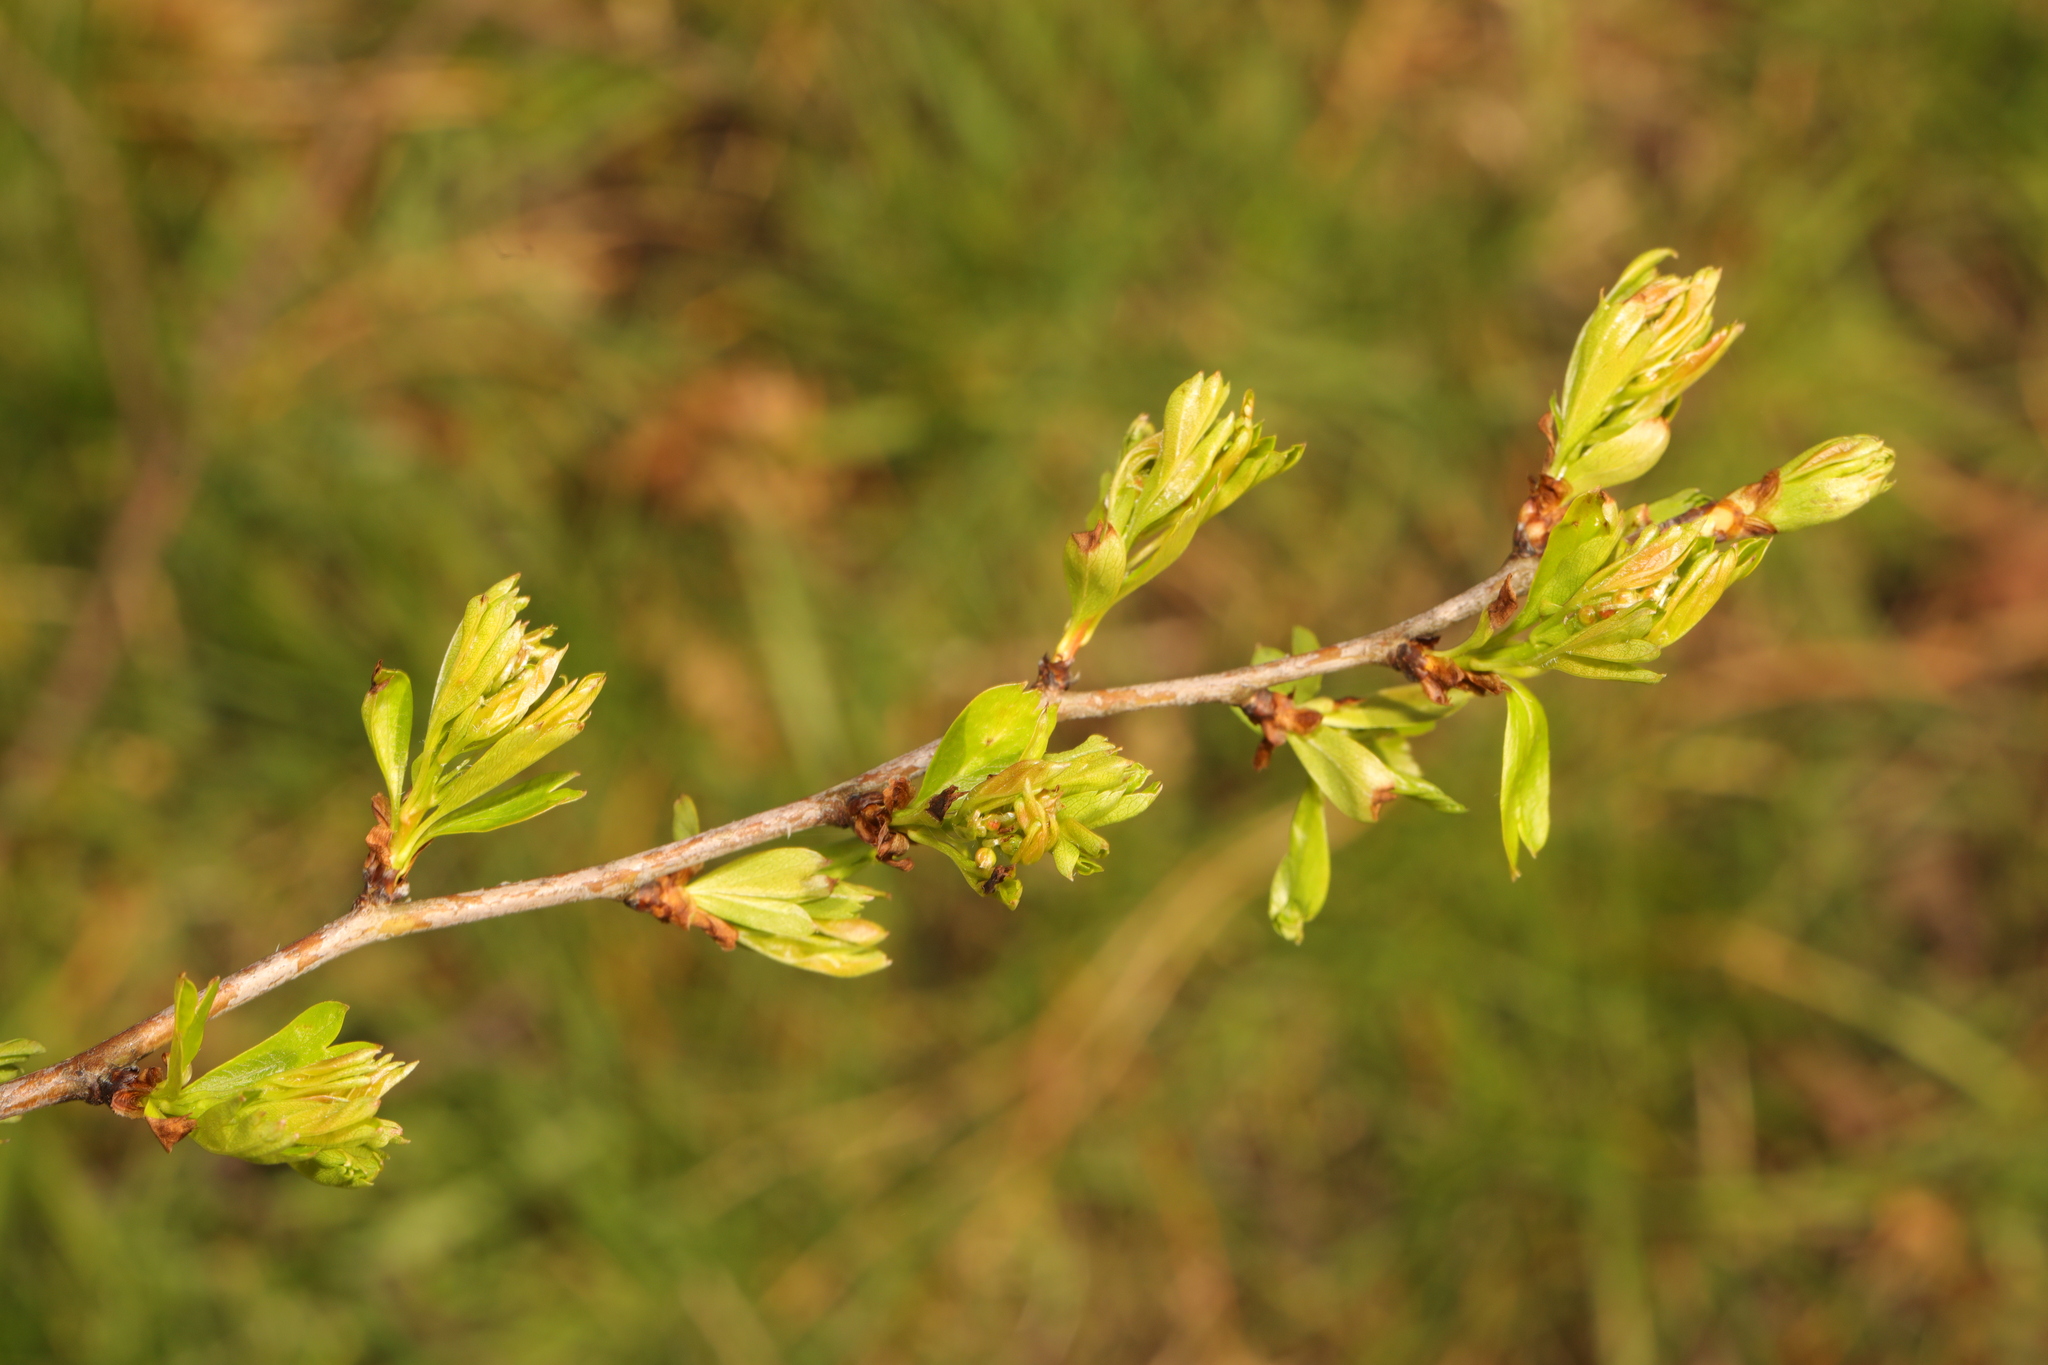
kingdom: Plantae
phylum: Tracheophyta
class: Magnoliopsida
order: Rosales
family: Rosaceae
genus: Crataegus
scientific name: Crataegus monogyna
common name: Hawthorn
